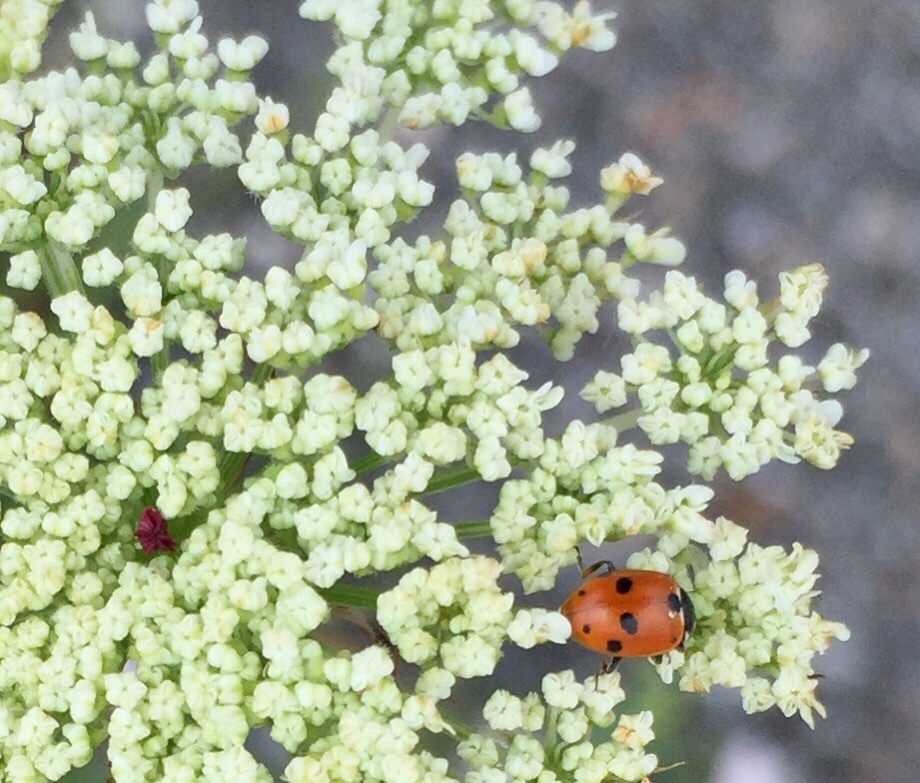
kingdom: Animalia
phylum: Arthropoda
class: Insecta
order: Coleoptera
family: Coccinellidae
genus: Hippodamia
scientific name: Hippodamia variegata
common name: Ladybird beetle
